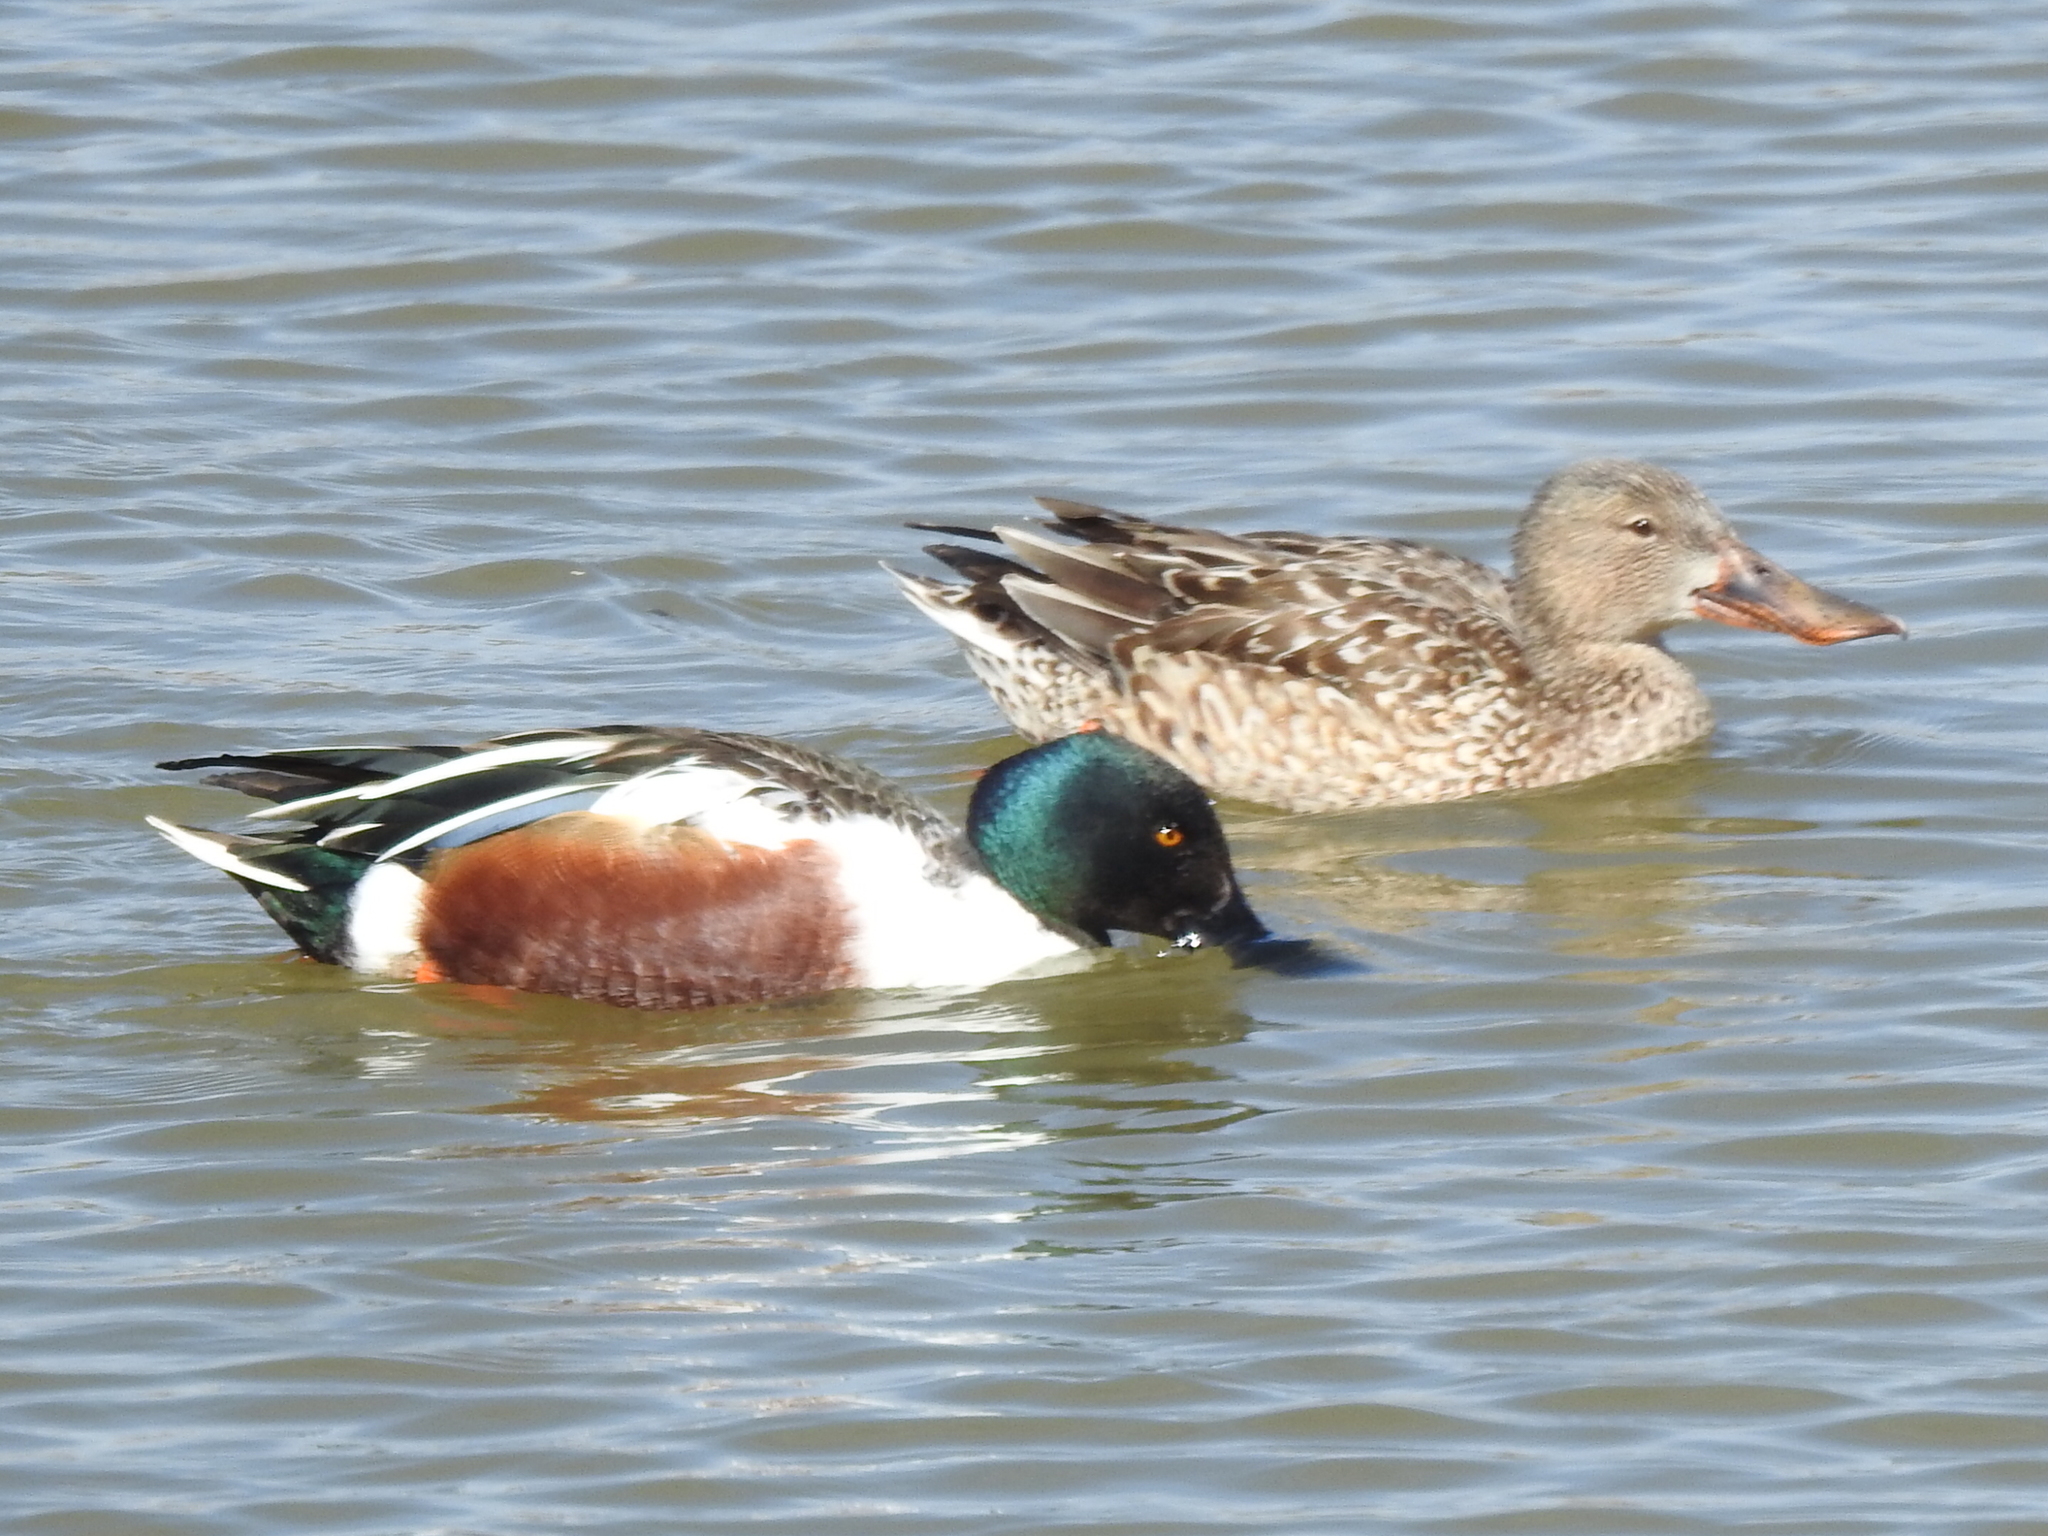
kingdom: Animalia
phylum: Chordata
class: Aves
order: Anseriformes
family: Anatidae
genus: Spatula
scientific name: Spatula clypeata
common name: Northern shoveler
